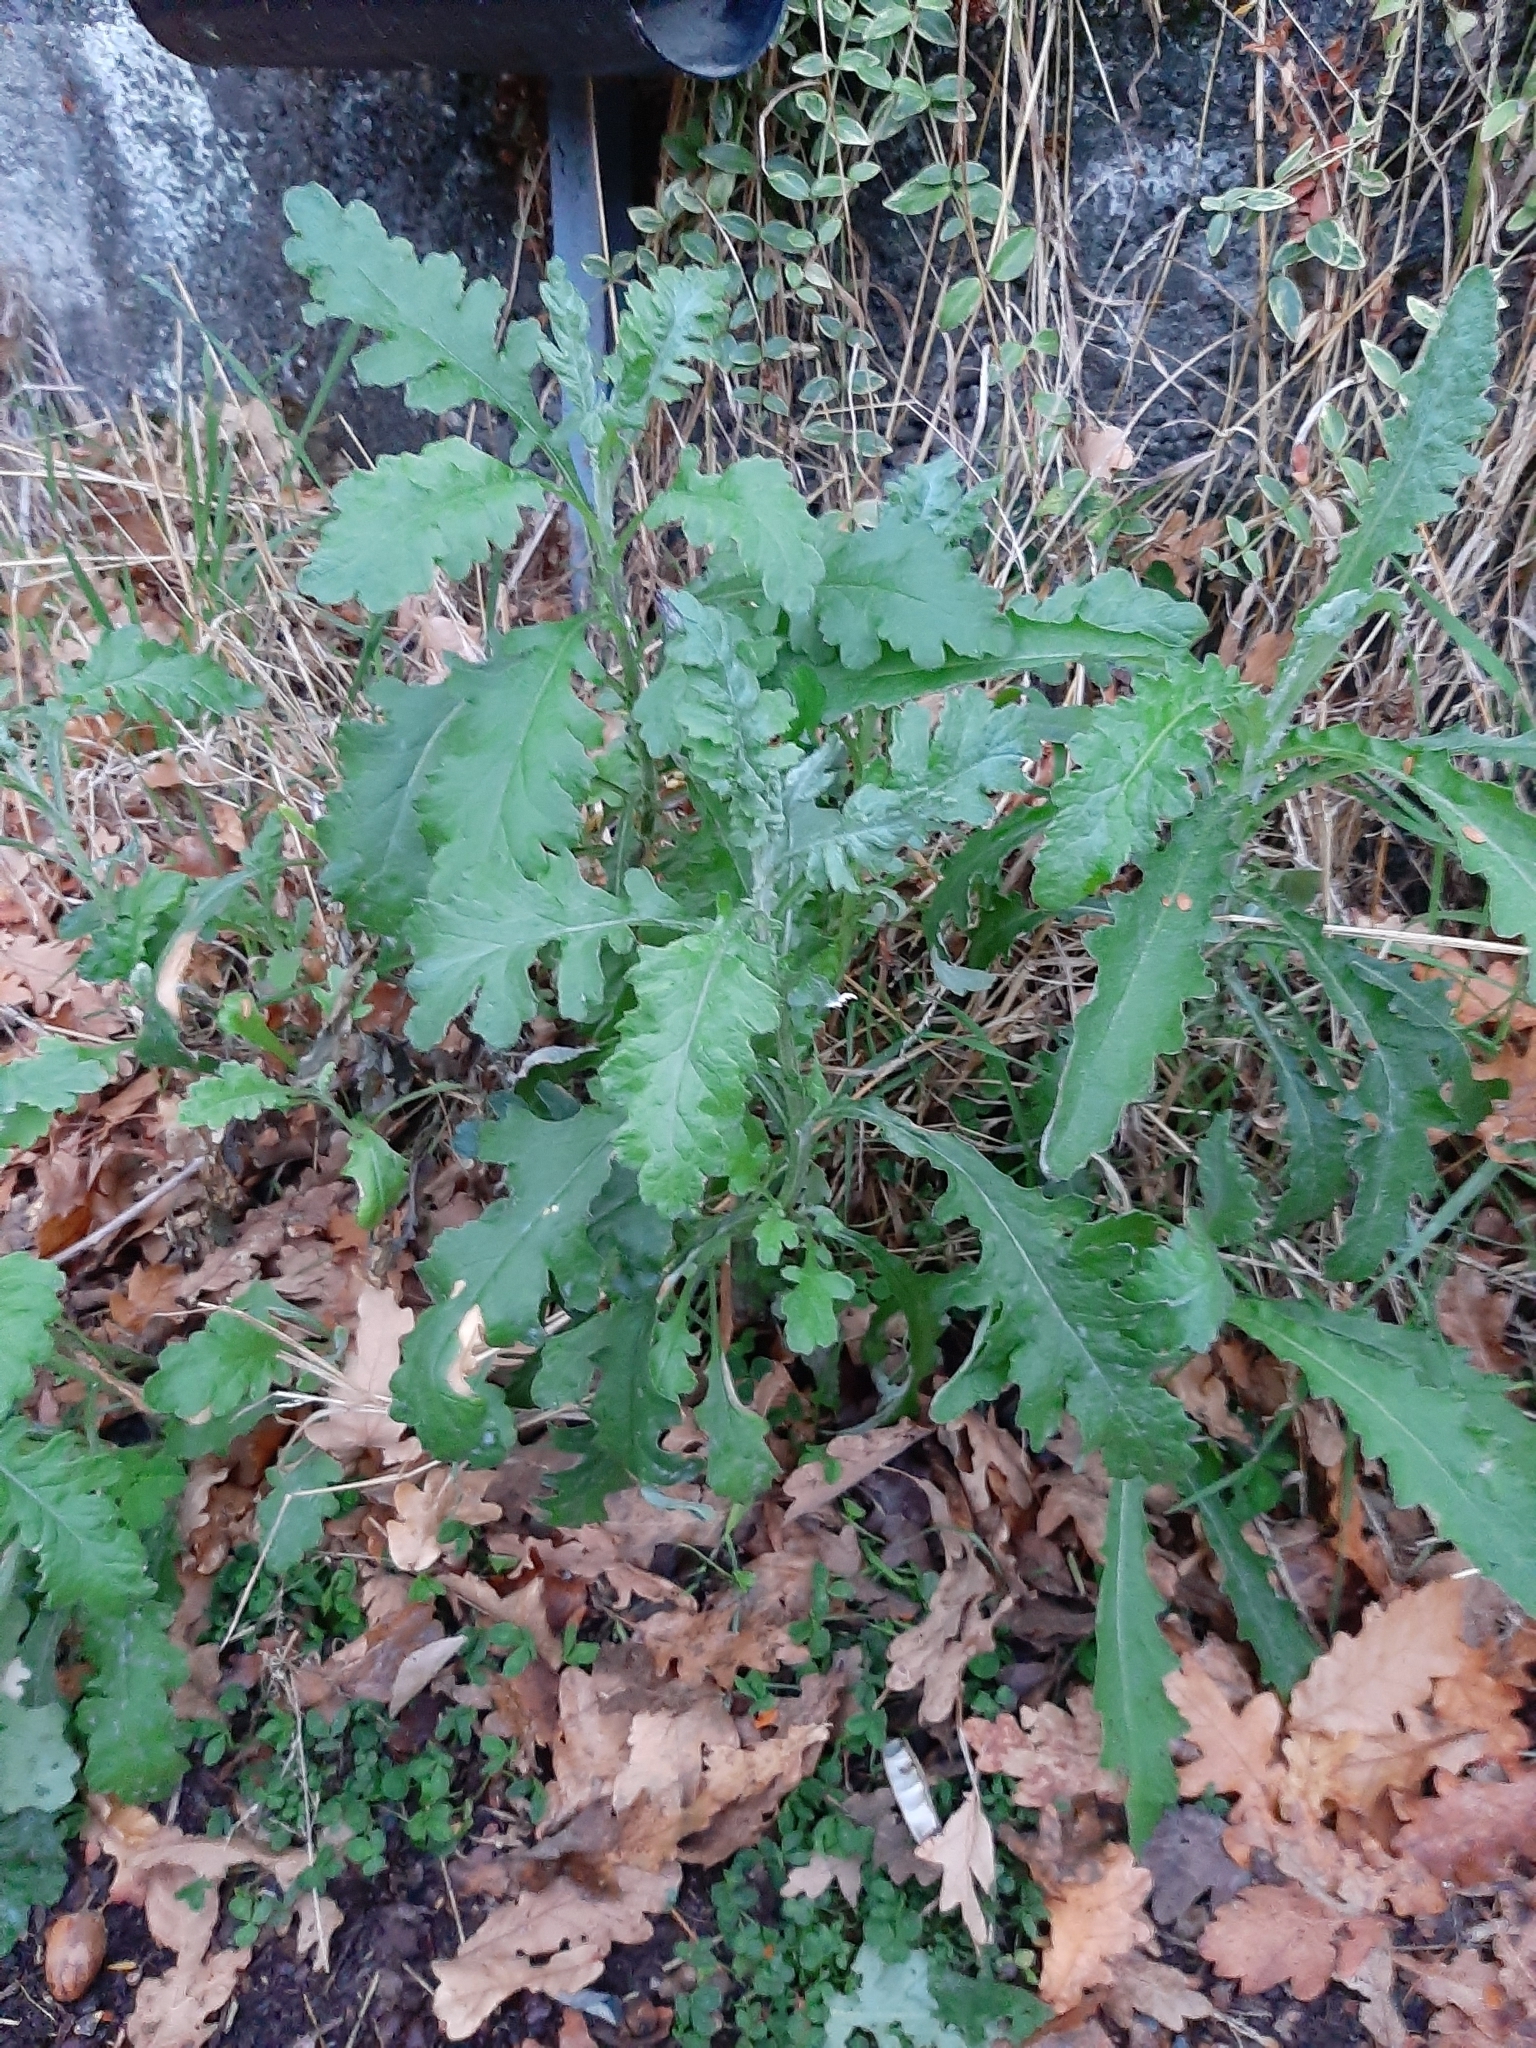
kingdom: Plantae
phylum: Tracheophyta
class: Magnoliopsida
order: Asterales
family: Asteraceae
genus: Senecio
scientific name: Senecio glomeratus
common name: Cutleaf burnweed
